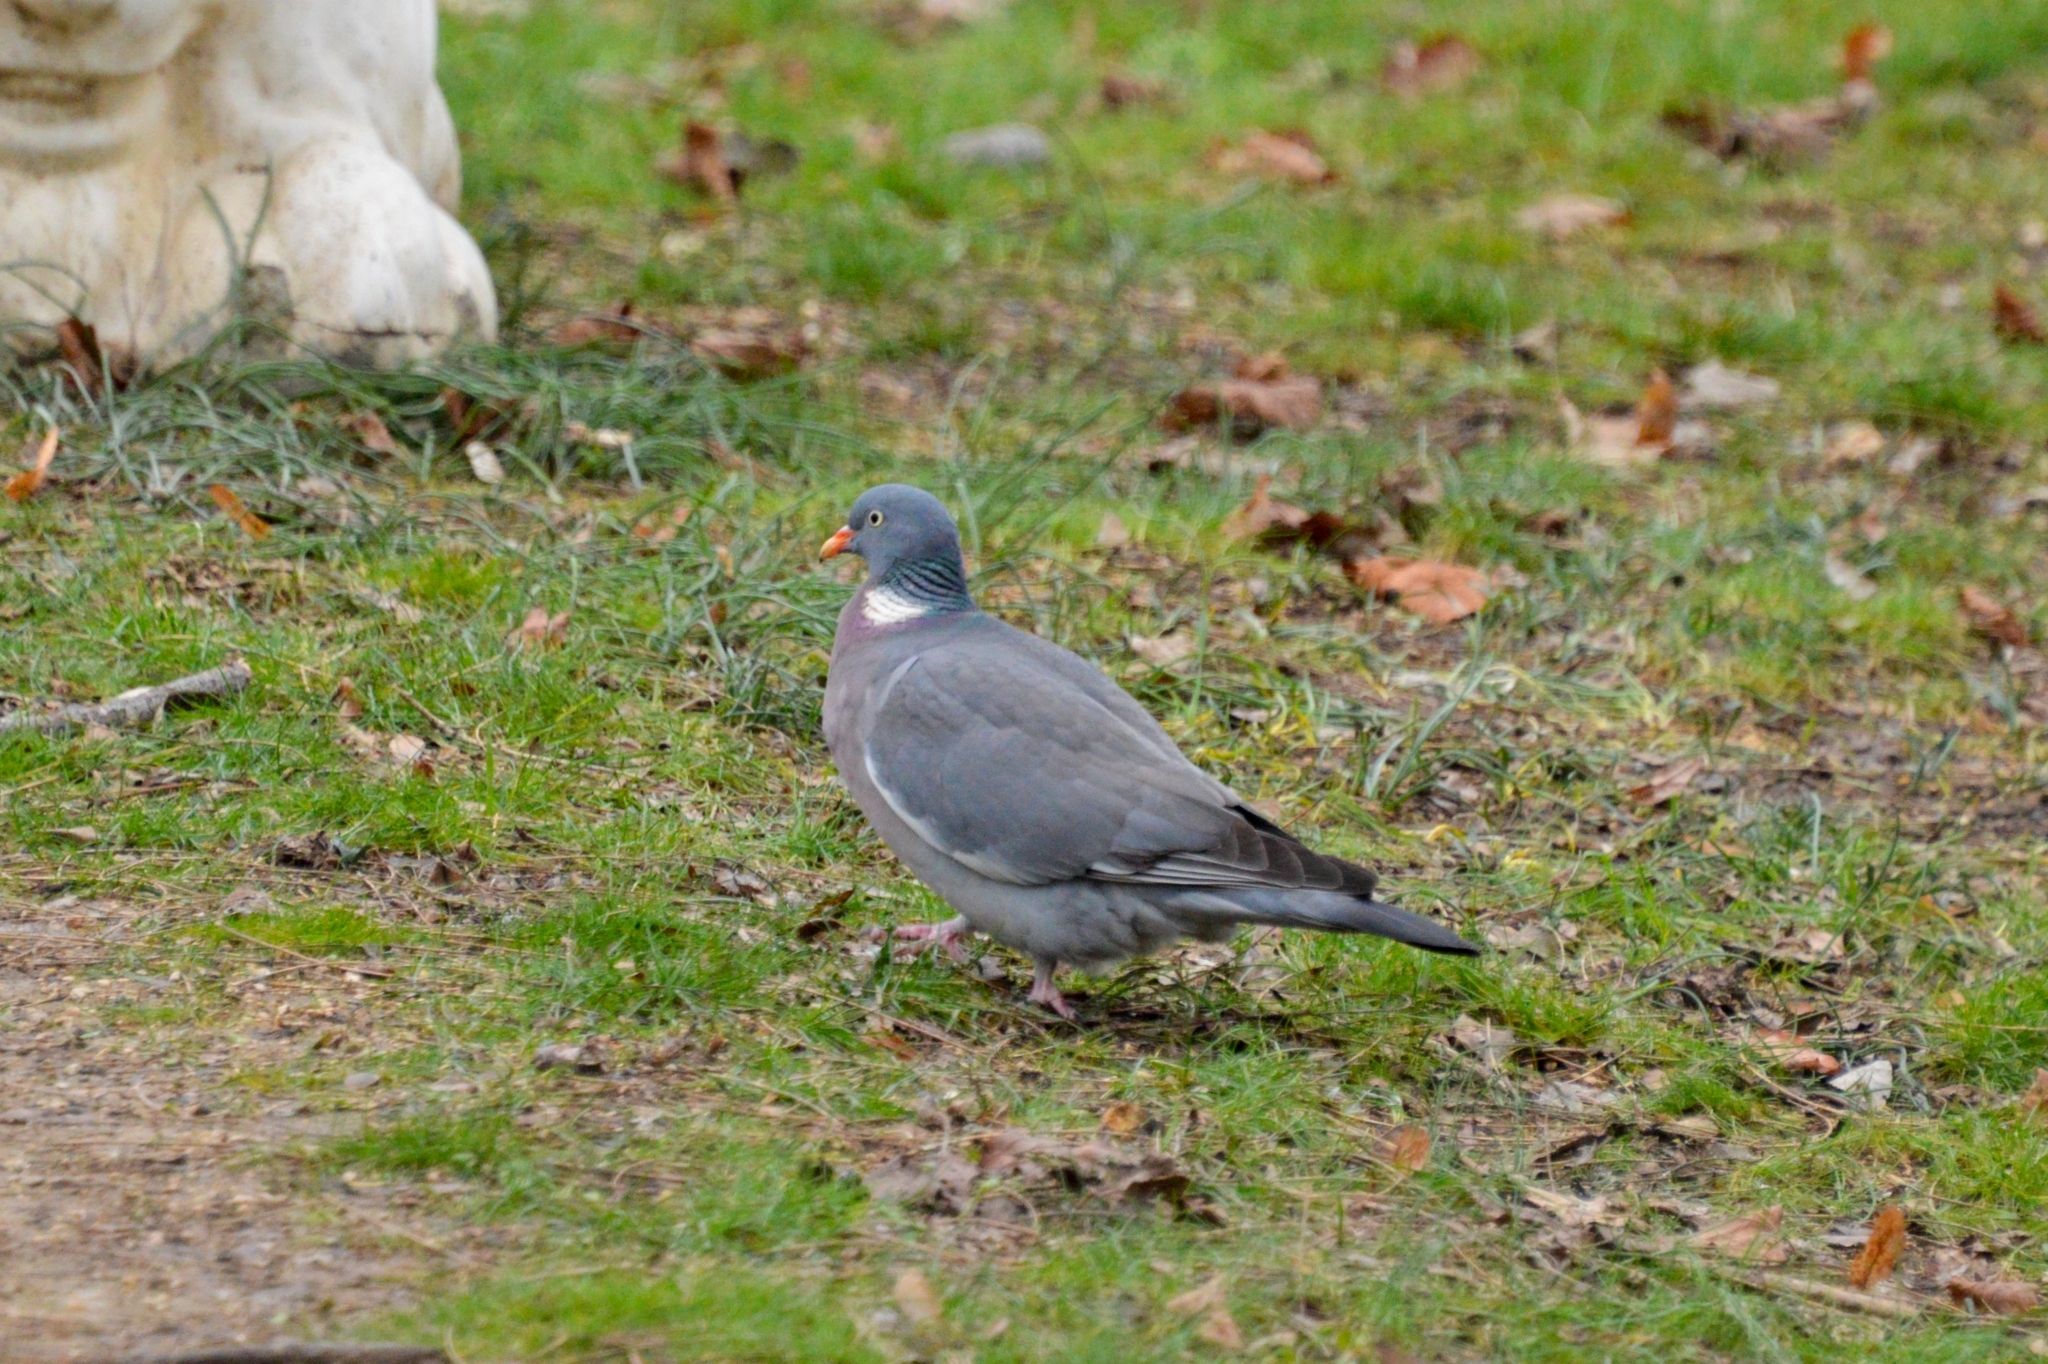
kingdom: Animalia
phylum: Chordata
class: Aves
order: Columbiformes
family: Columbidae
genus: Columba
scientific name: Columba palumbus
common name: Common wood pigeon
